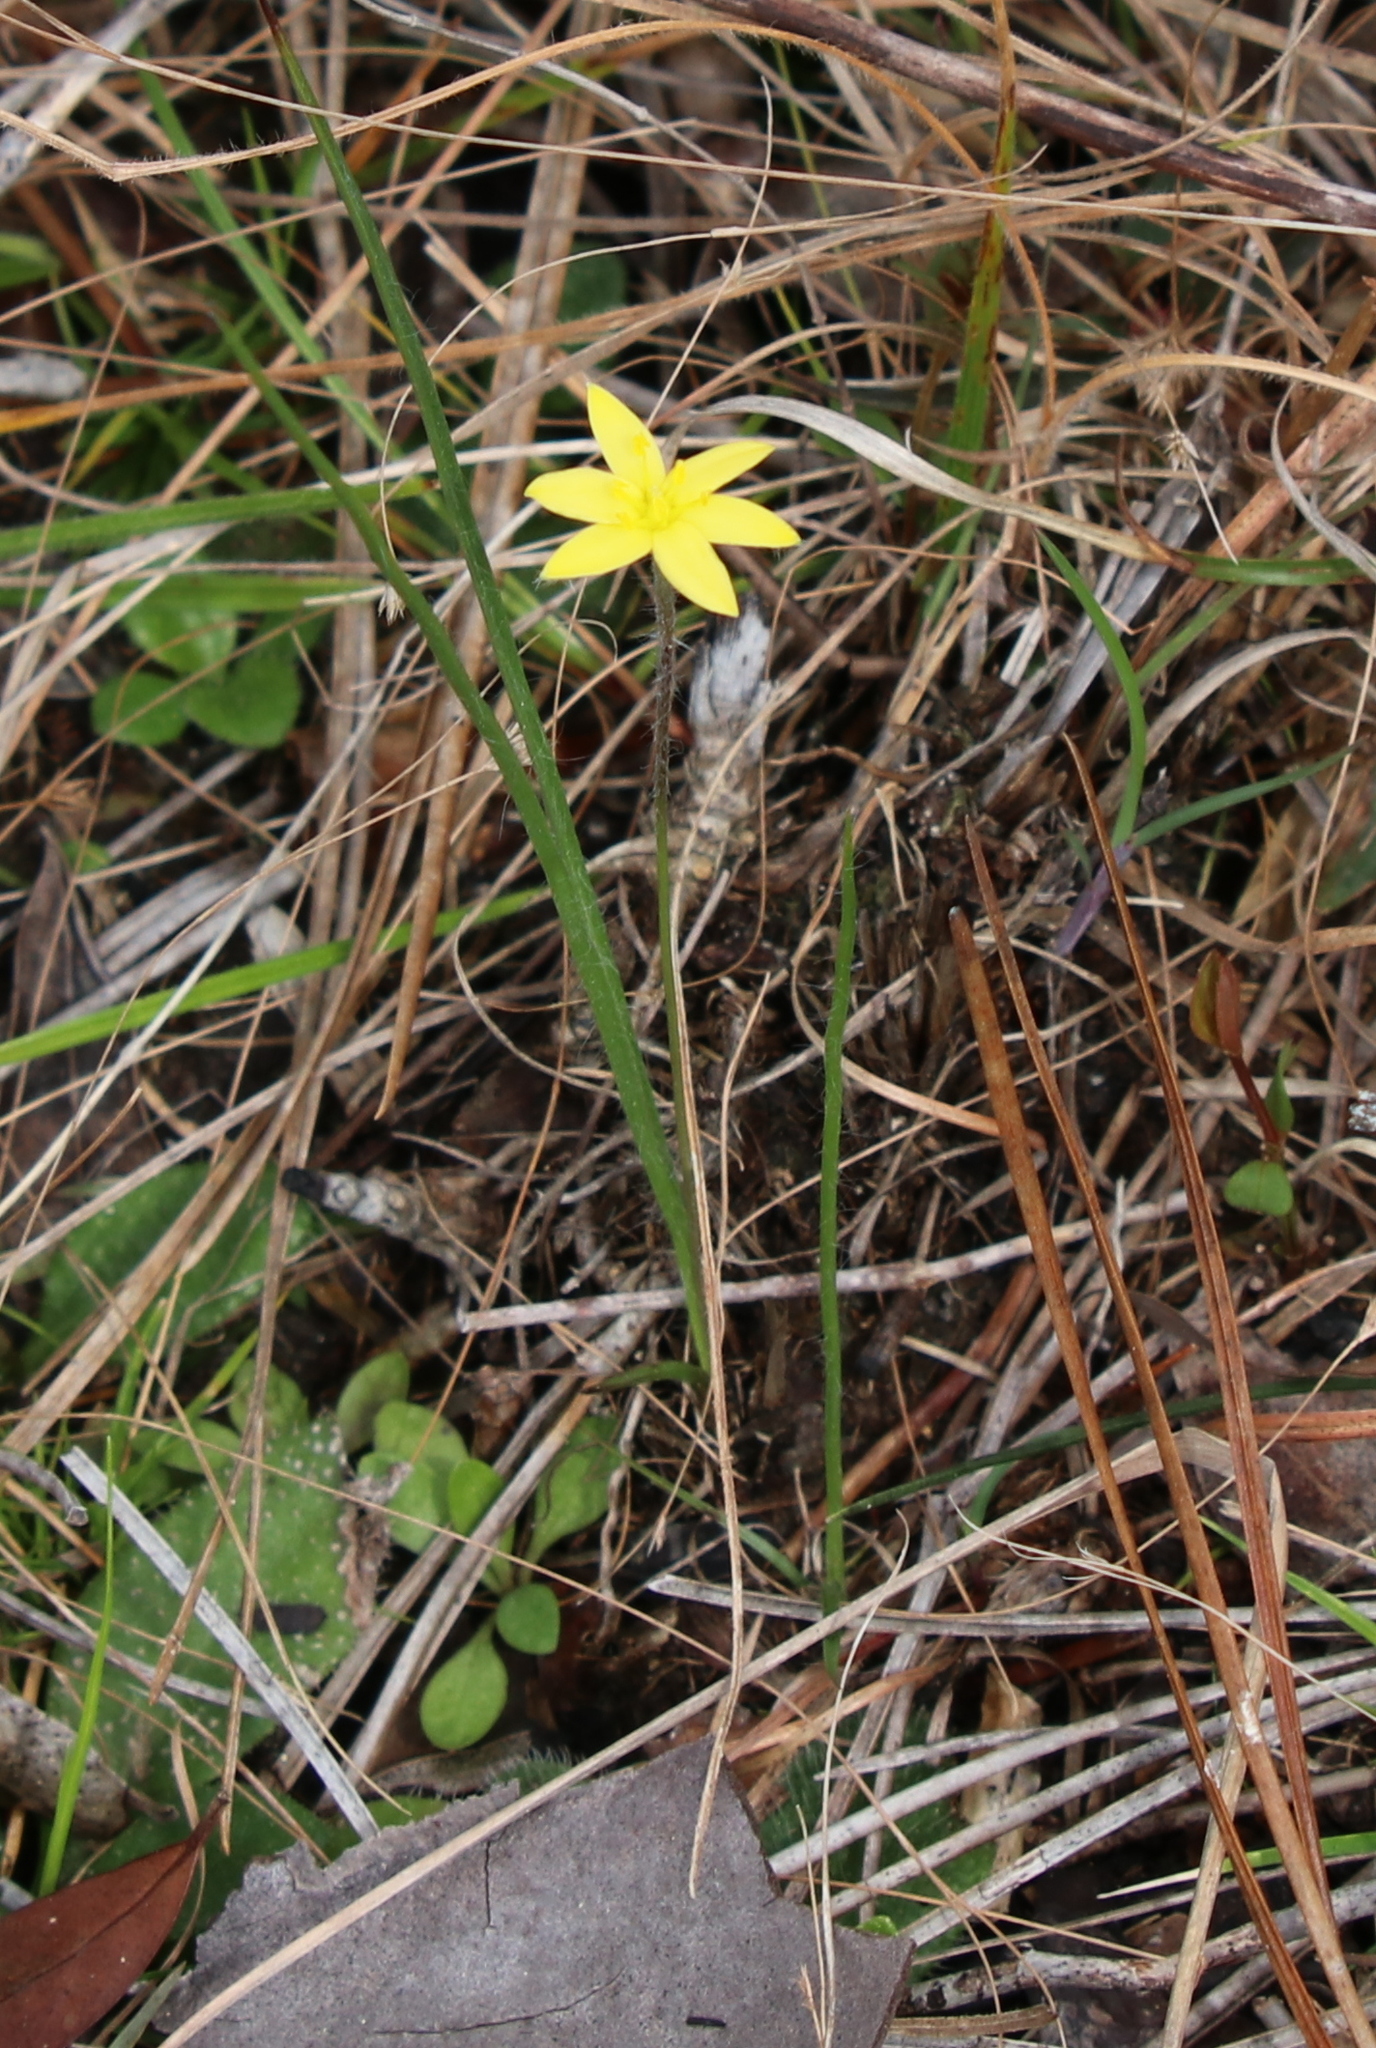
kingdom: Plantae
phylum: Tracheophyta
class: Liliopsida
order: Asparagales
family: Hypoxidaceae
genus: Hypoxis
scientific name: Hypoxis hirsuta
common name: Common goldstar
